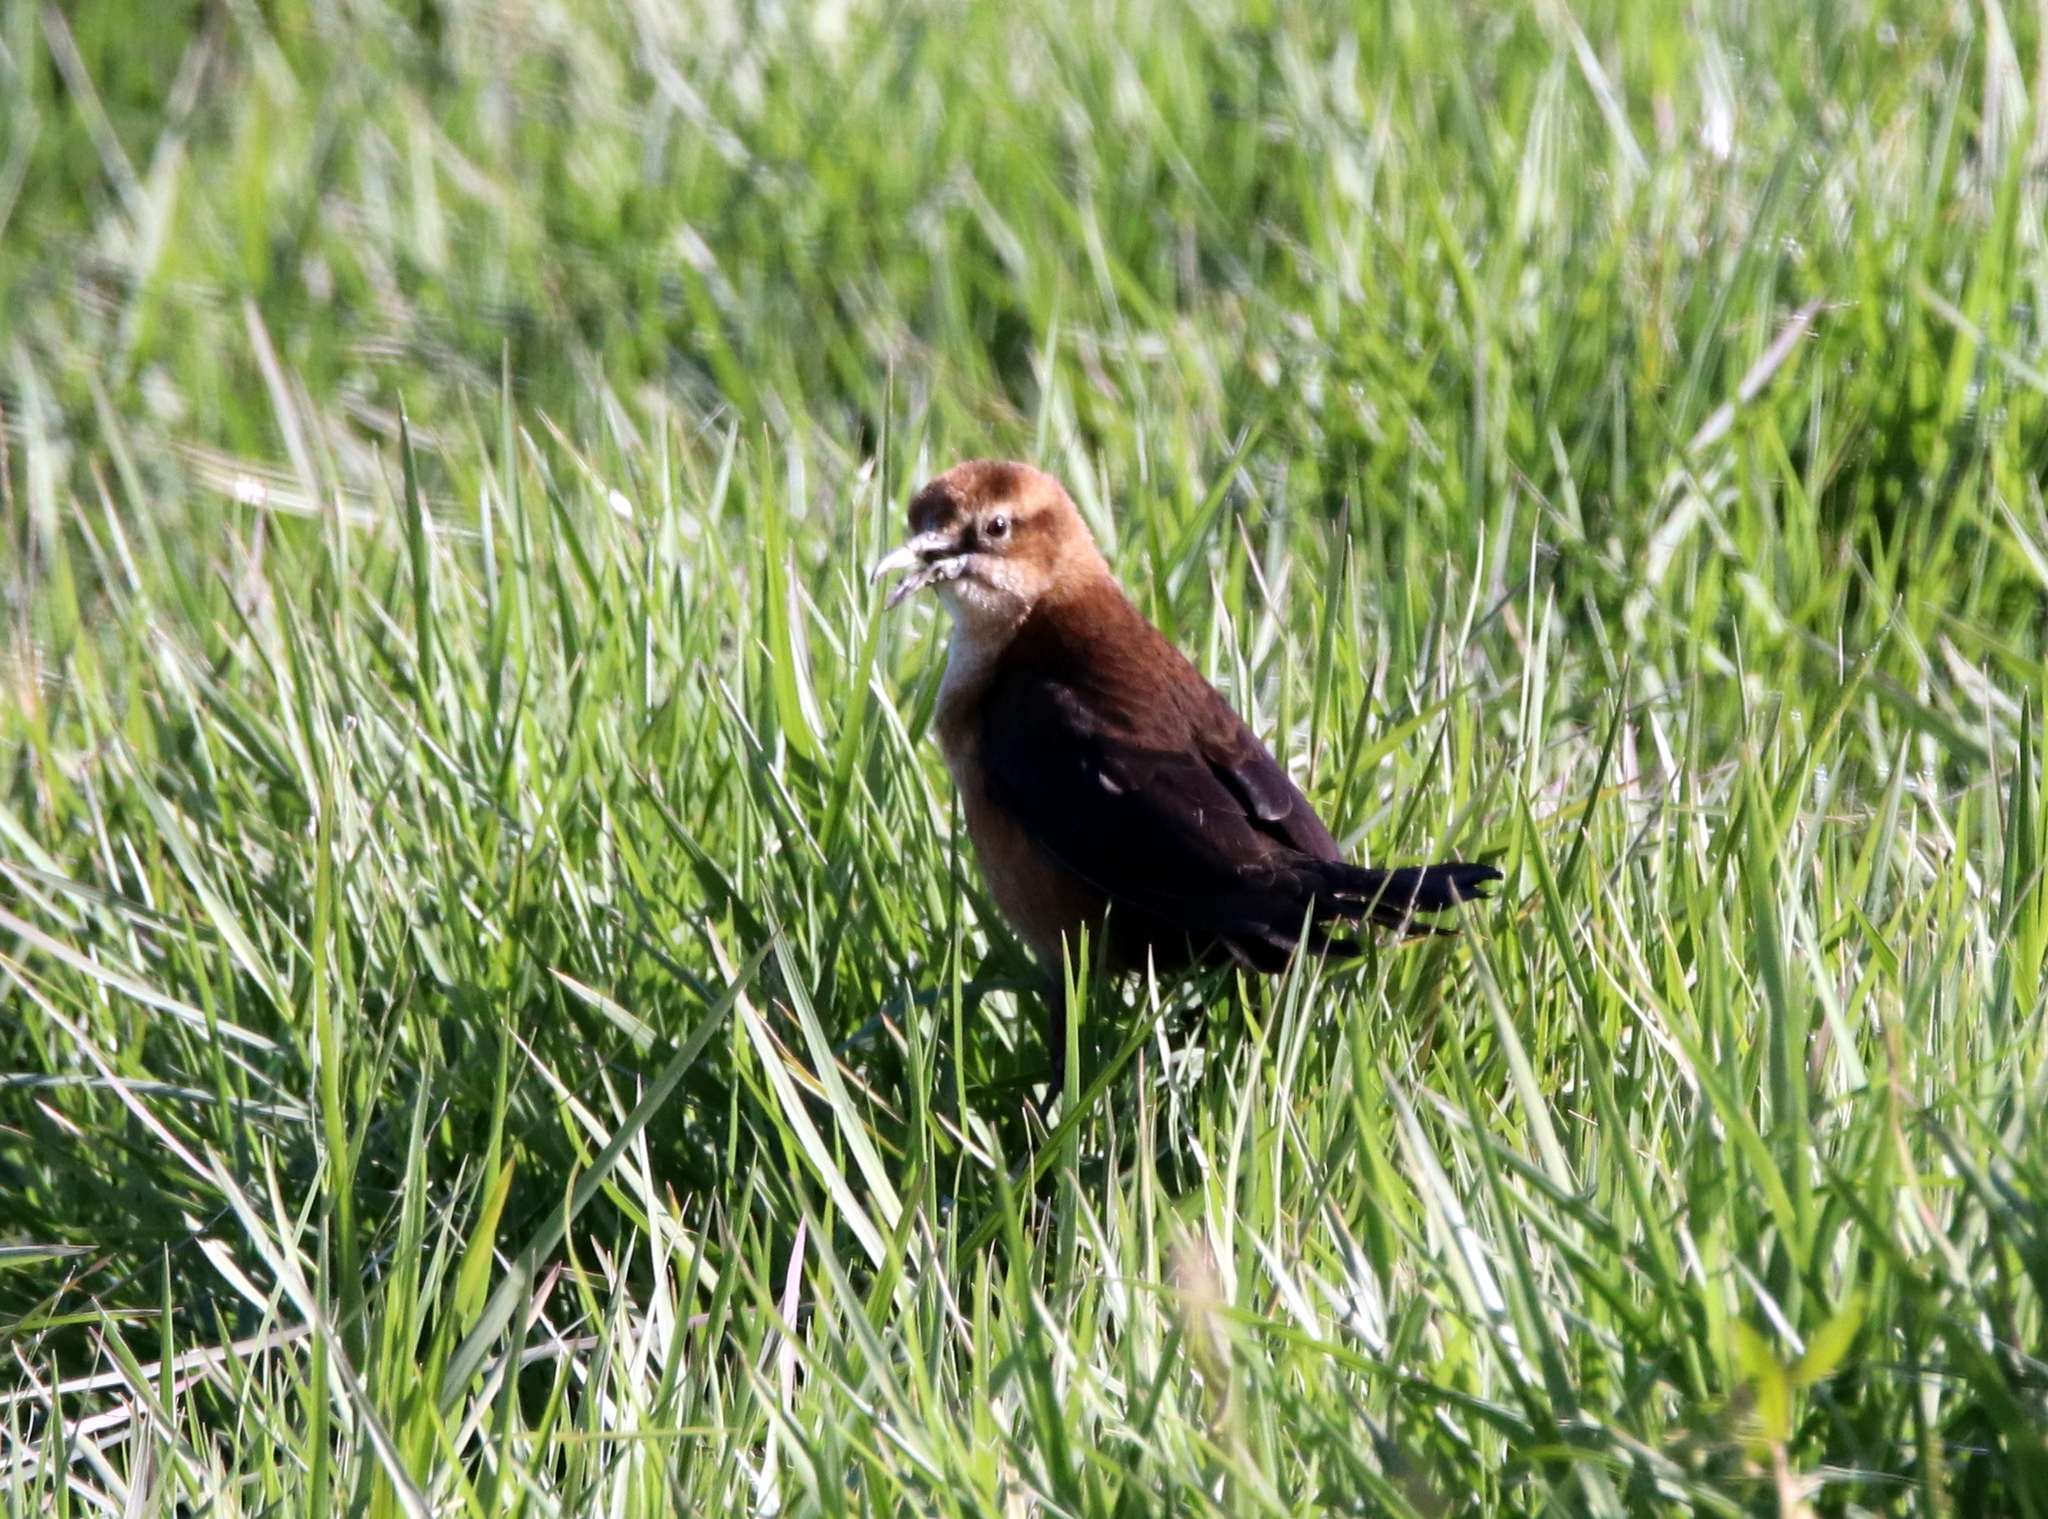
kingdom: Animalia
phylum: Chordata
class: Aves
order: Passeriformes
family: Icteridae
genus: Quiscalus
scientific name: Quiscalus major
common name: Boat-tailed grackle
